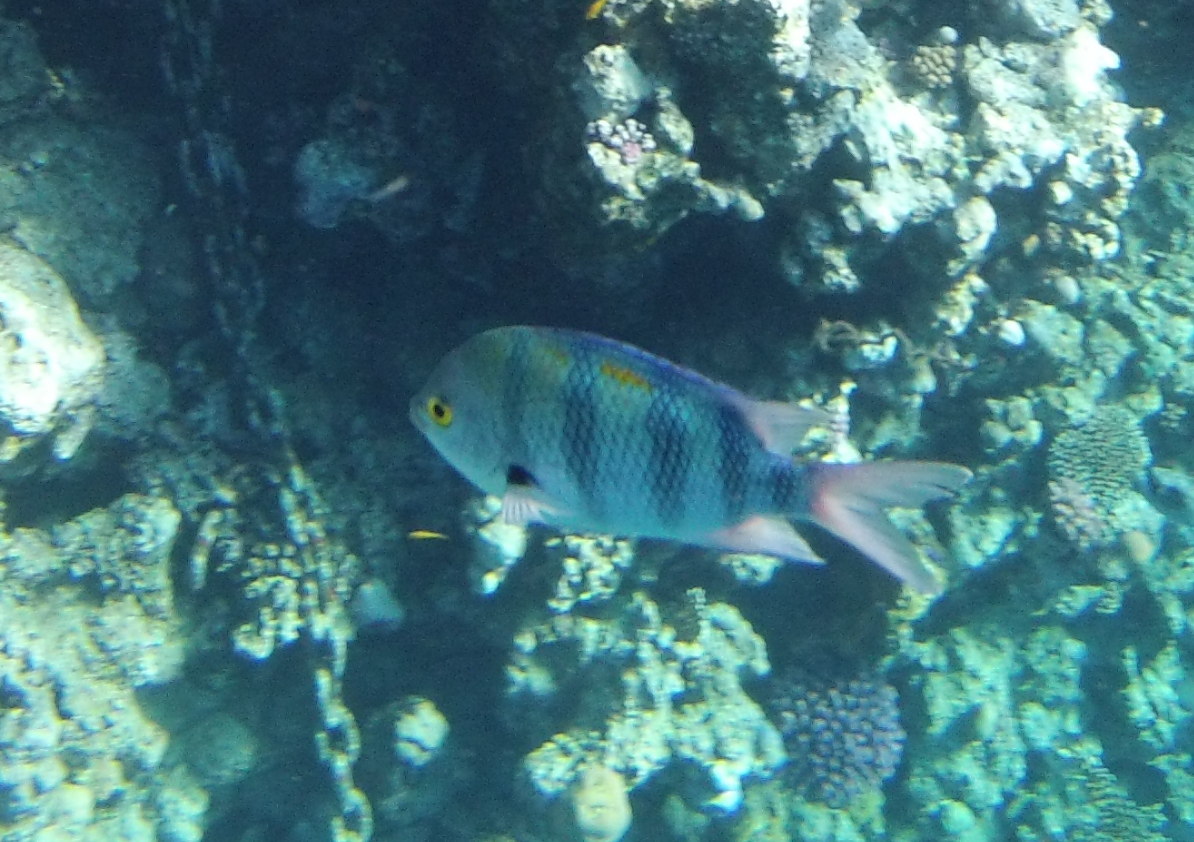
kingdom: Animalia
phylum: Chordata
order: Perciformes
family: Pomacentridae
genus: Abudefduf
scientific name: Abudefduf vaigiensis
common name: Indo-pacific sergeant
